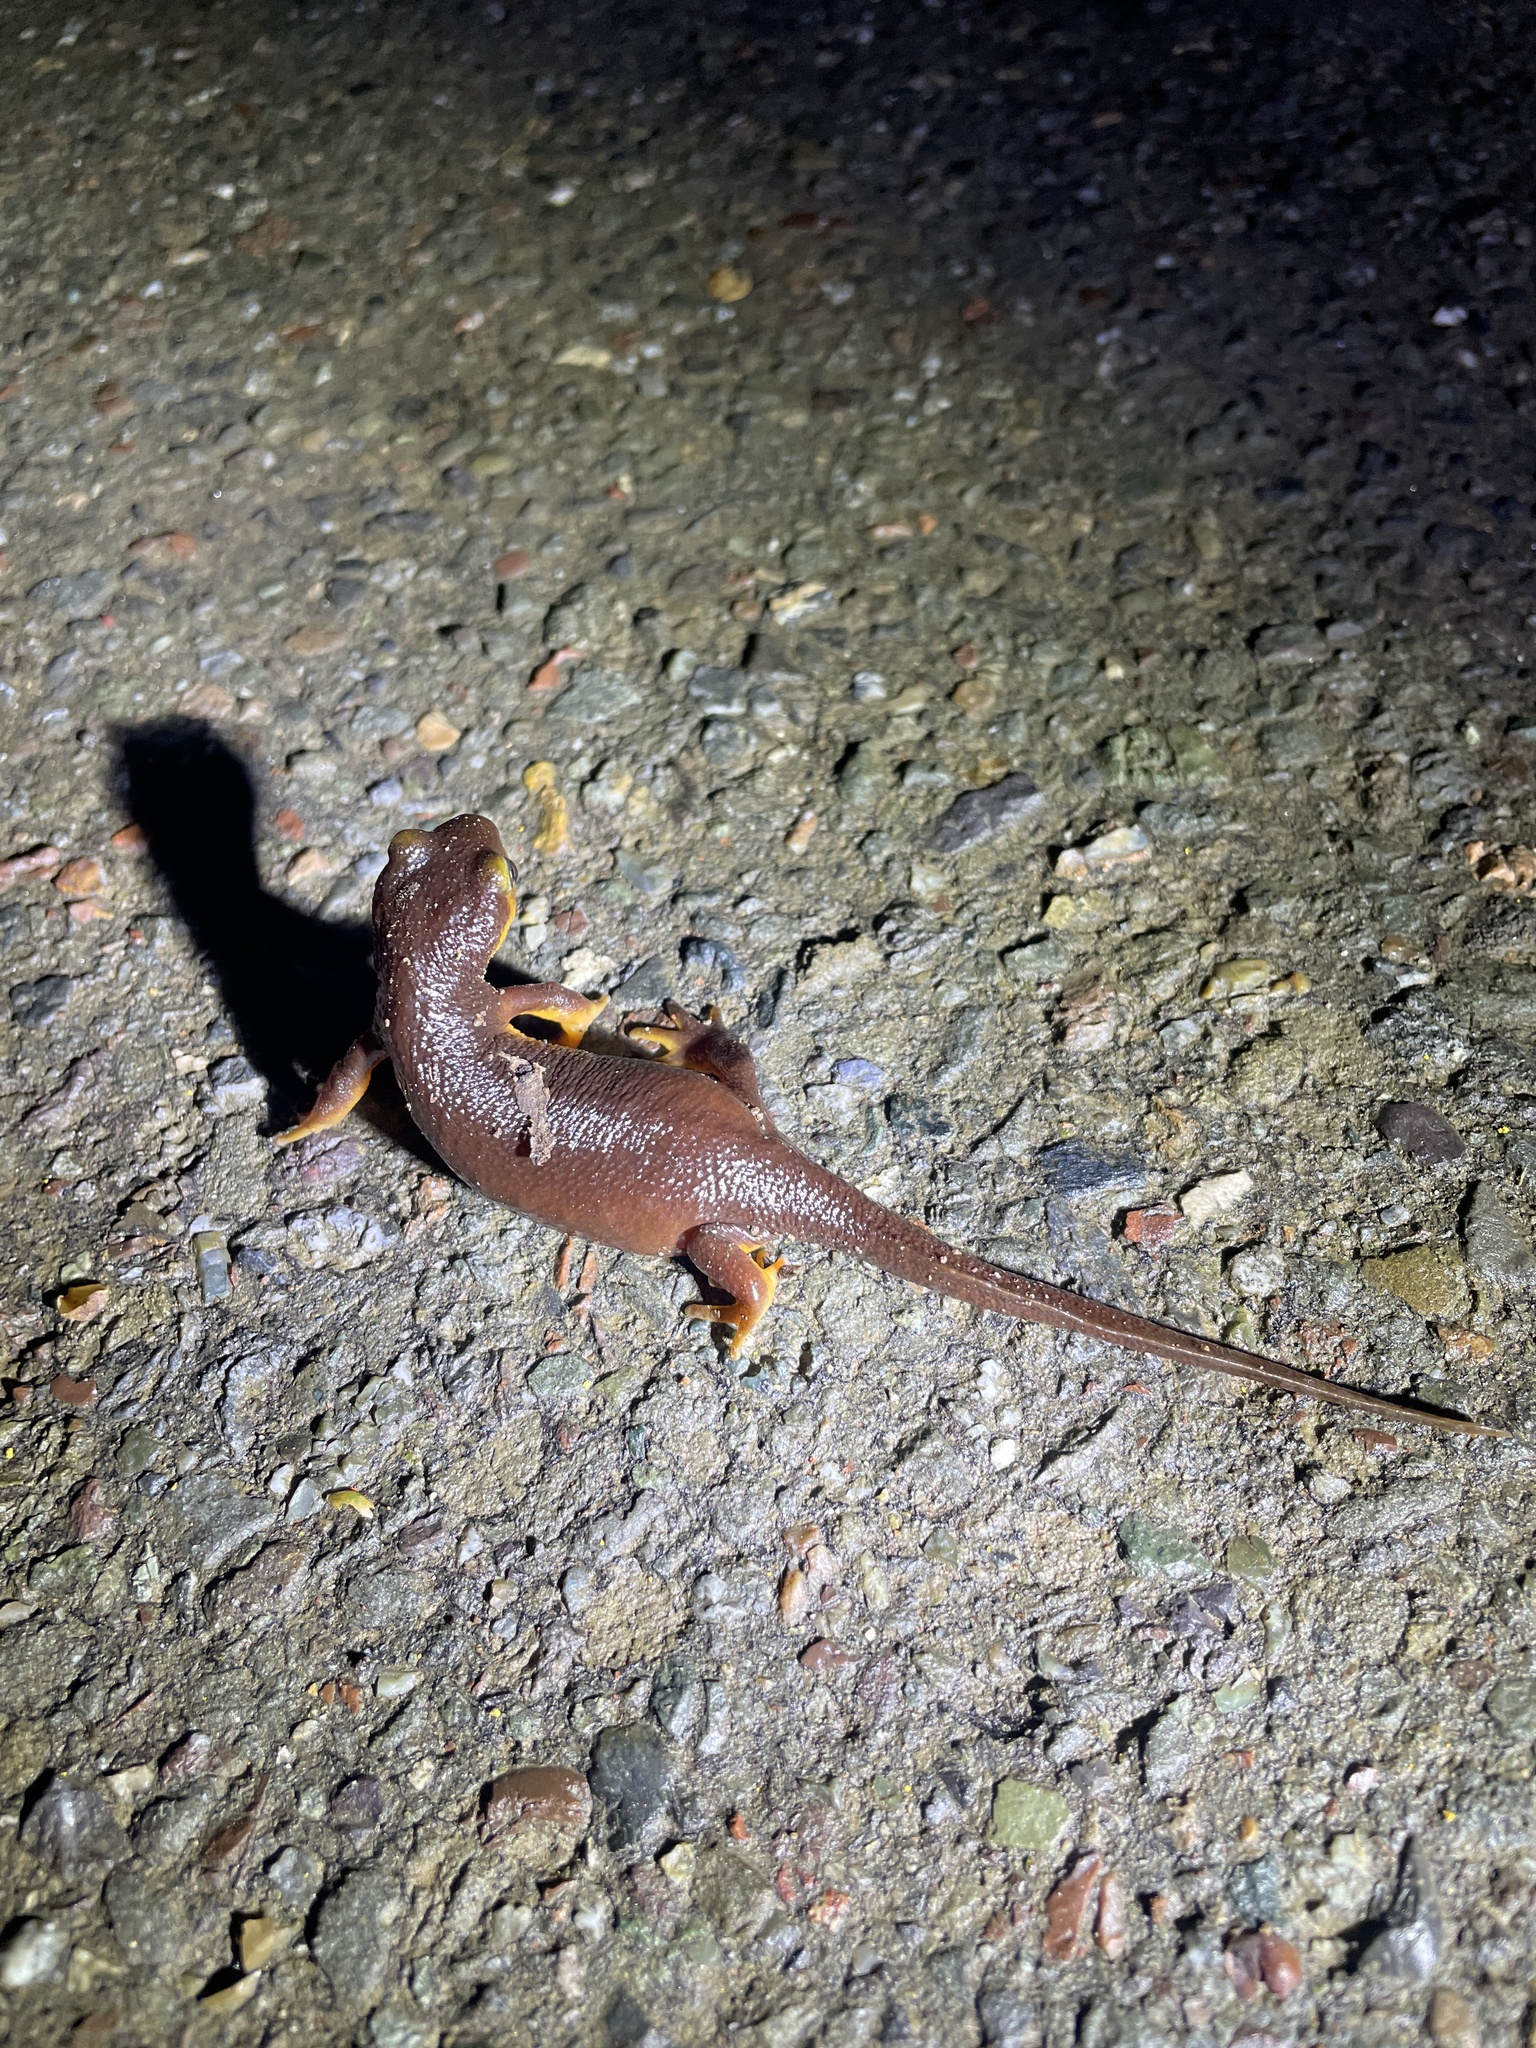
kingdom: Animalia
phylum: Chordata
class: Amphibia
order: Caudata
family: Salamandridae
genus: Taricha
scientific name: Taricha torosa
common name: California newt
